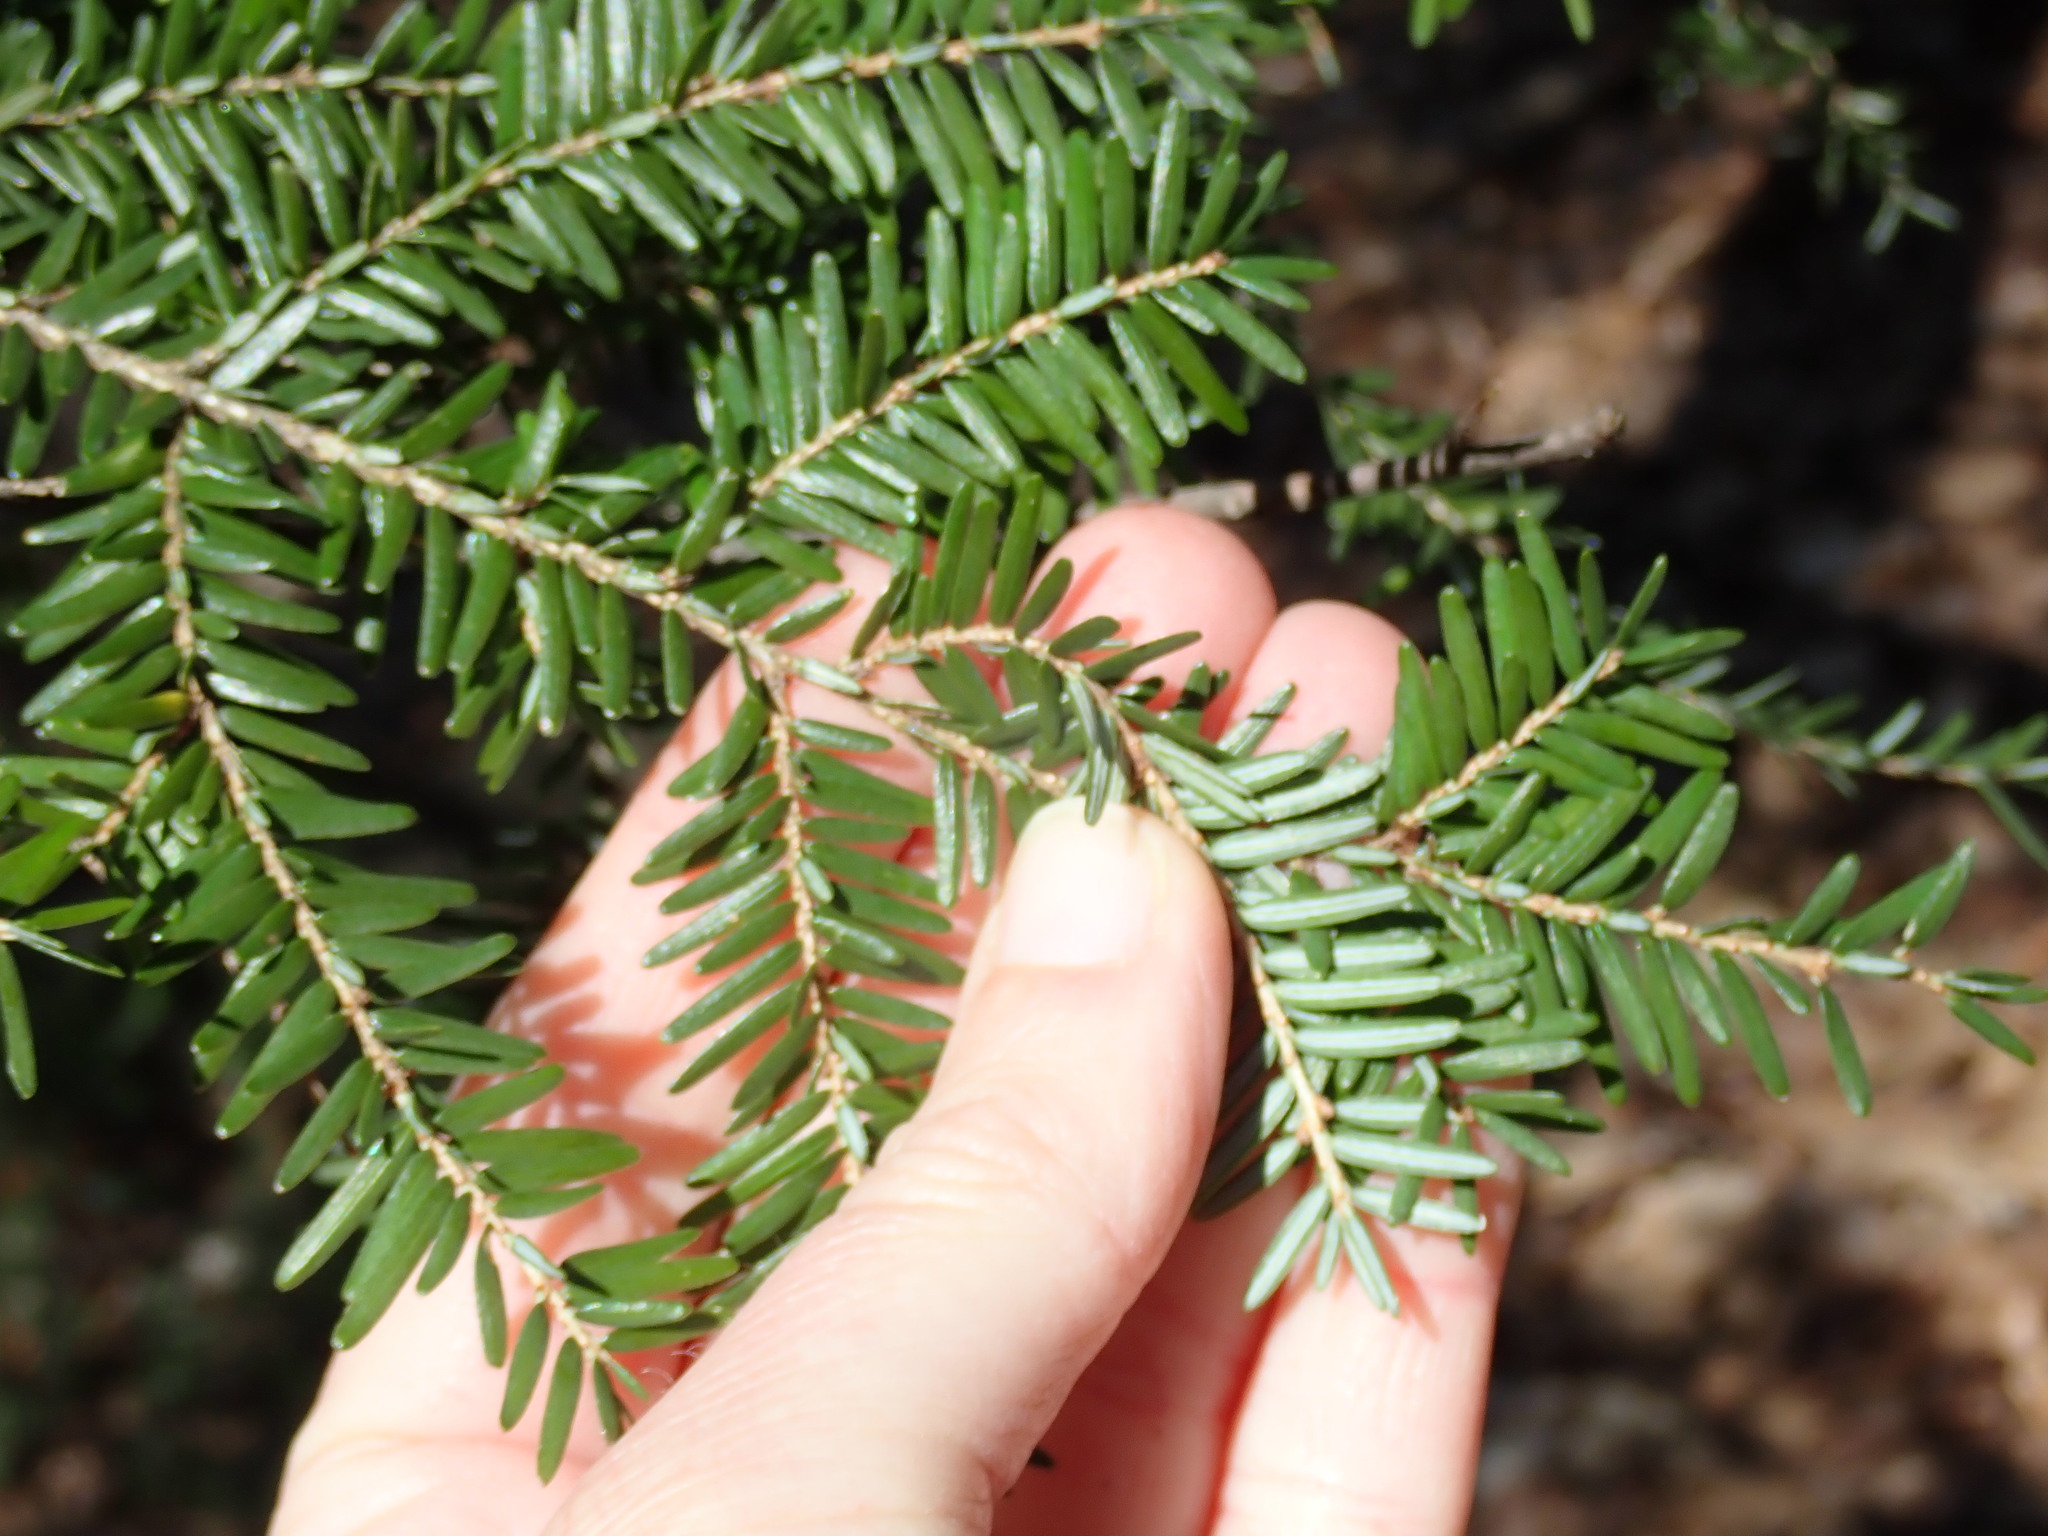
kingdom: Plantae
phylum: Tracheophyta
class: Pinopsida
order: Pinales
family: Pinaceae
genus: Tsuga
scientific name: Tsuga canadensis
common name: Eastern hemlock
